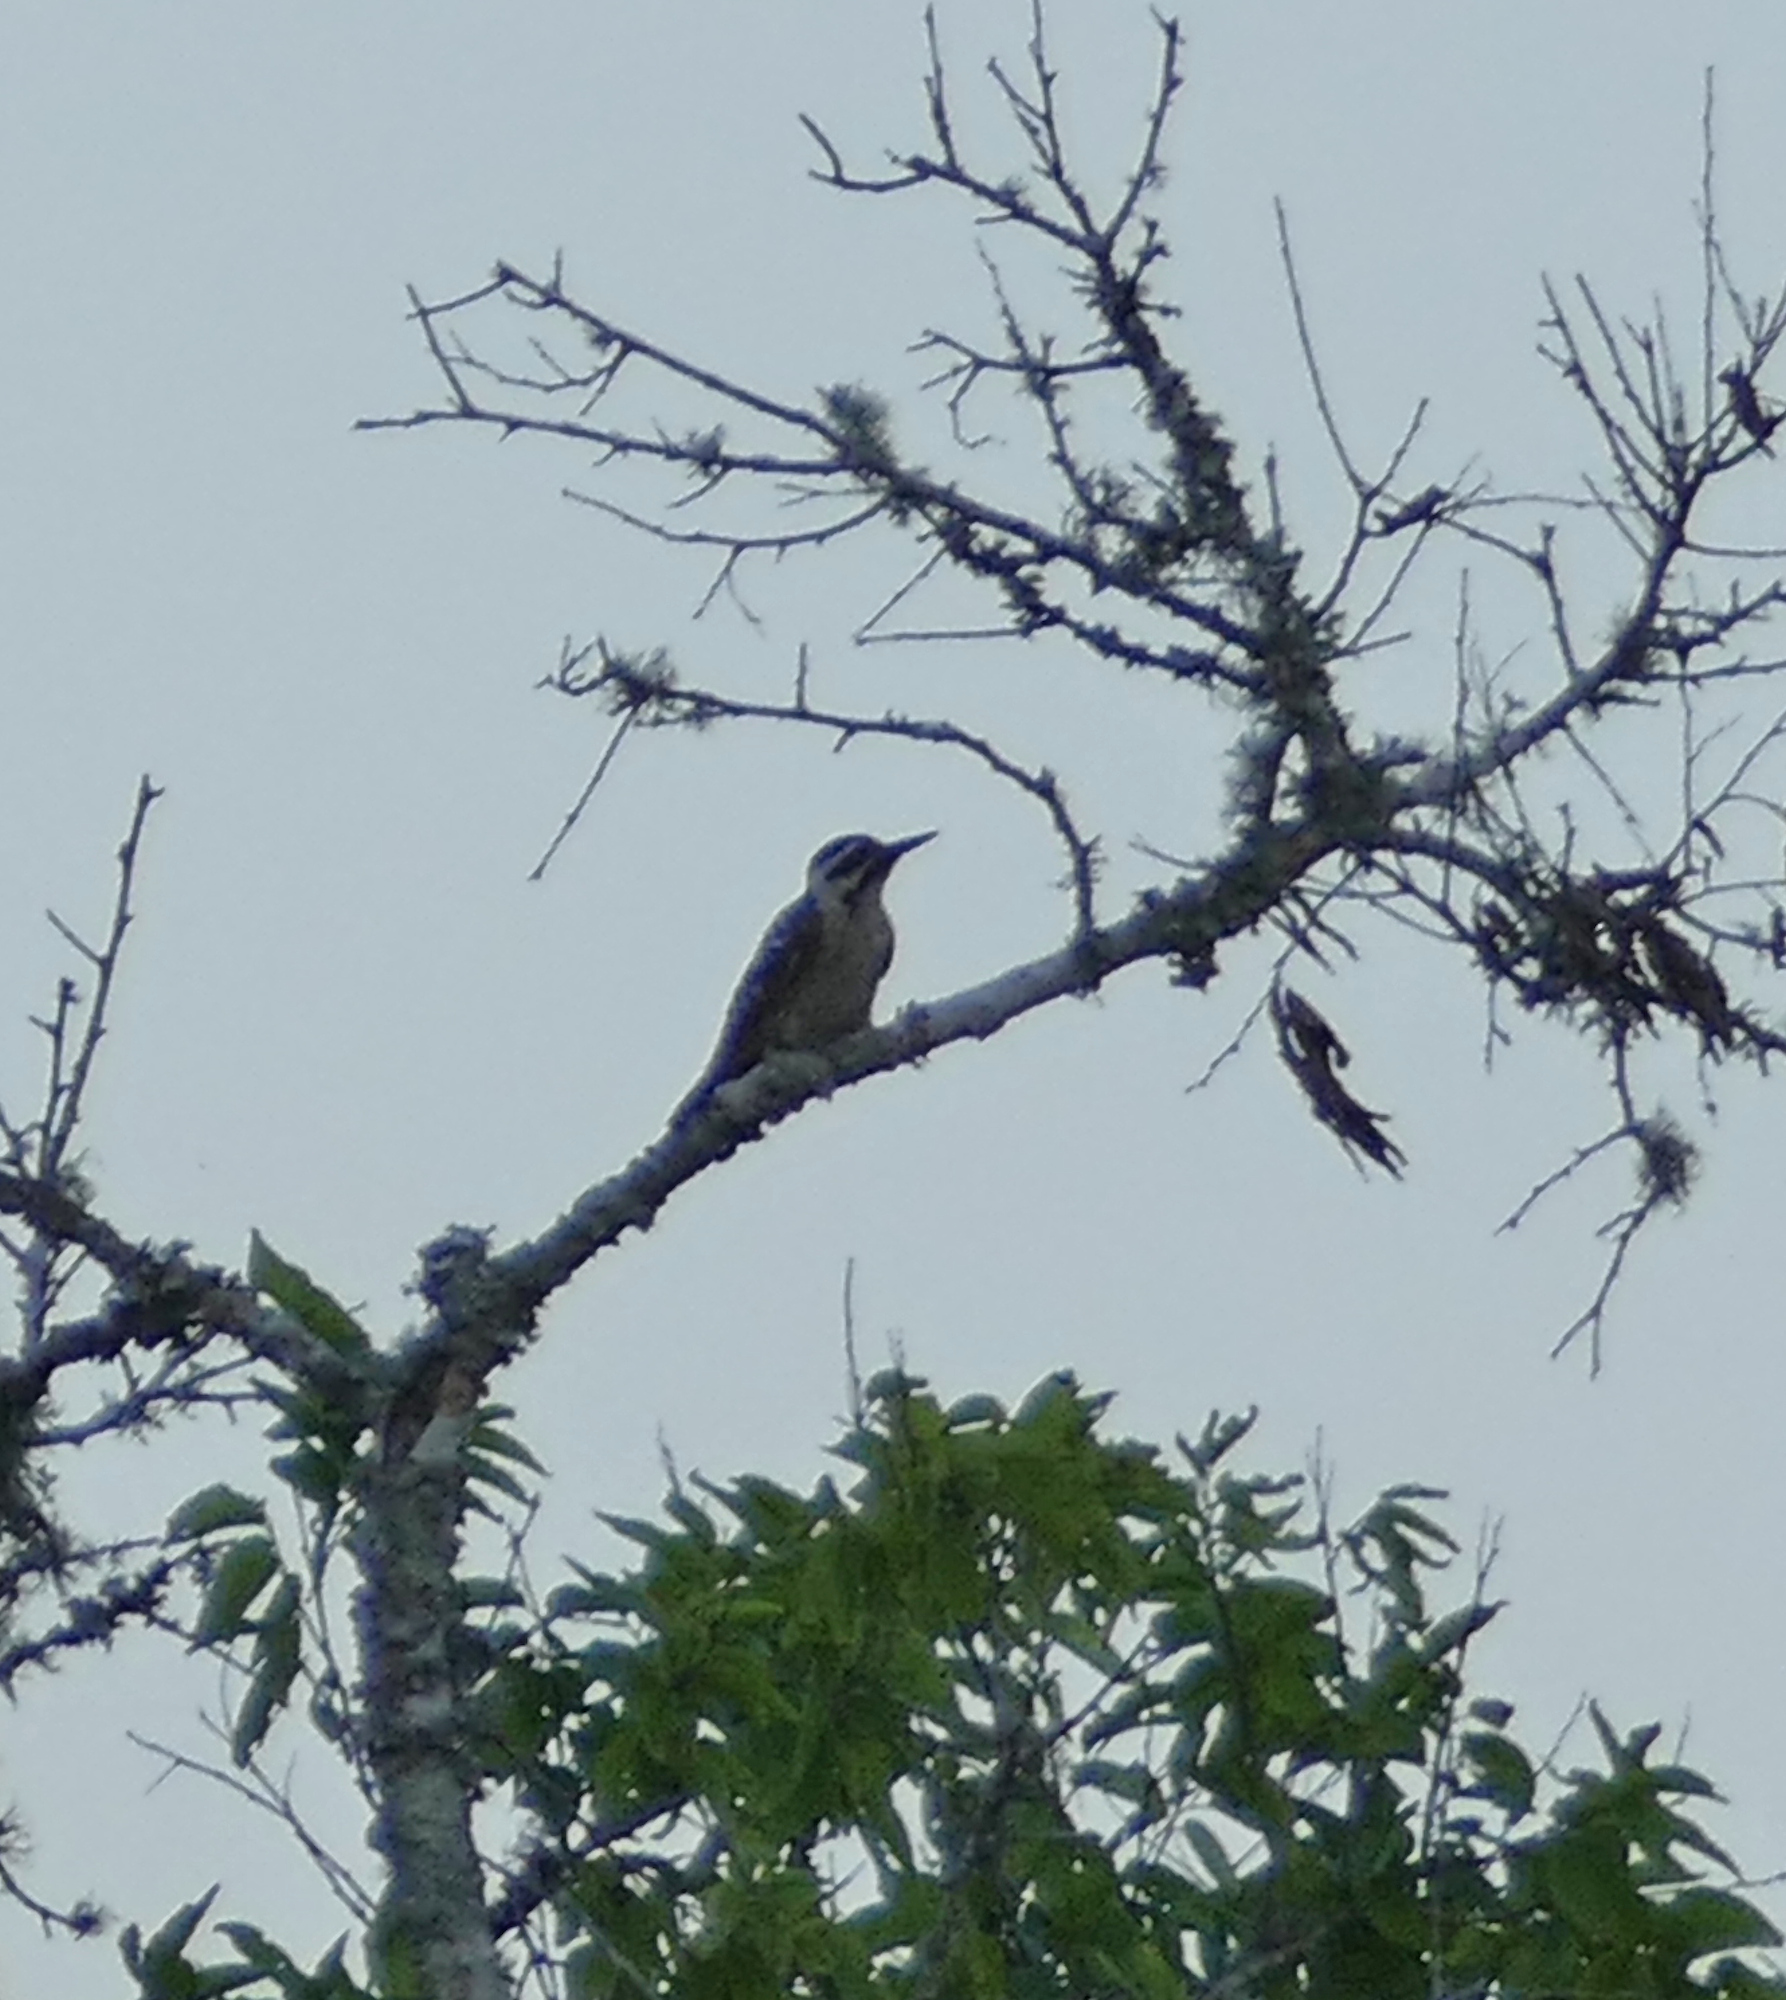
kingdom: Animalia
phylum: Chordata
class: Aves
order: Piciformes
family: Picidae
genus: Dryobates
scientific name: Dryobates scalaris
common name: Ladder-backed woodpecker
